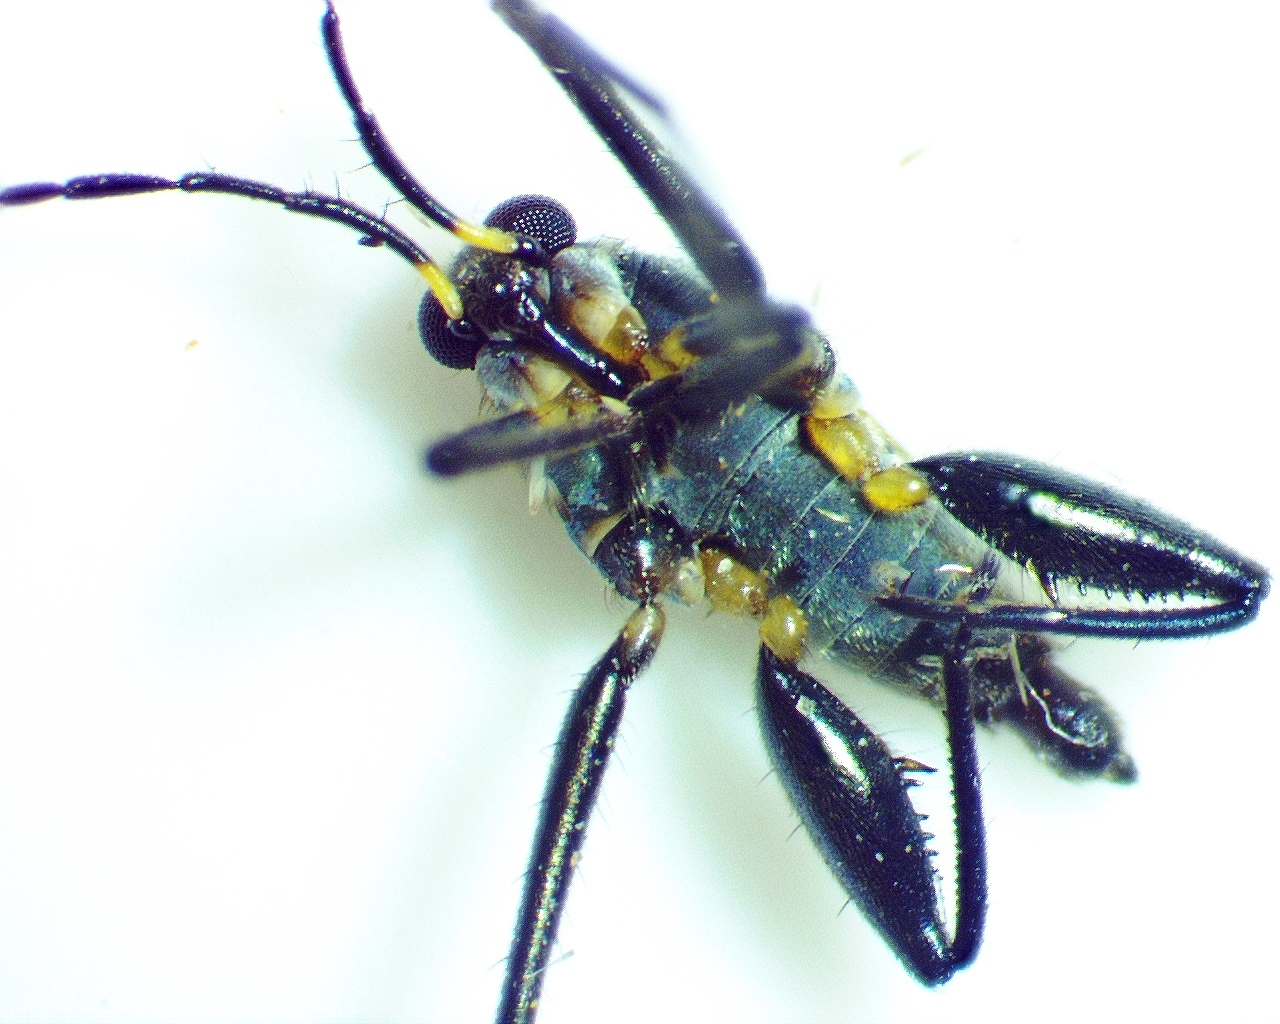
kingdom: Animalia
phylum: Arthropoda
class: Insecta
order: Hemiptera
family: Veliidae
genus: Rhagovelia
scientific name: Rhagovelia obesa
